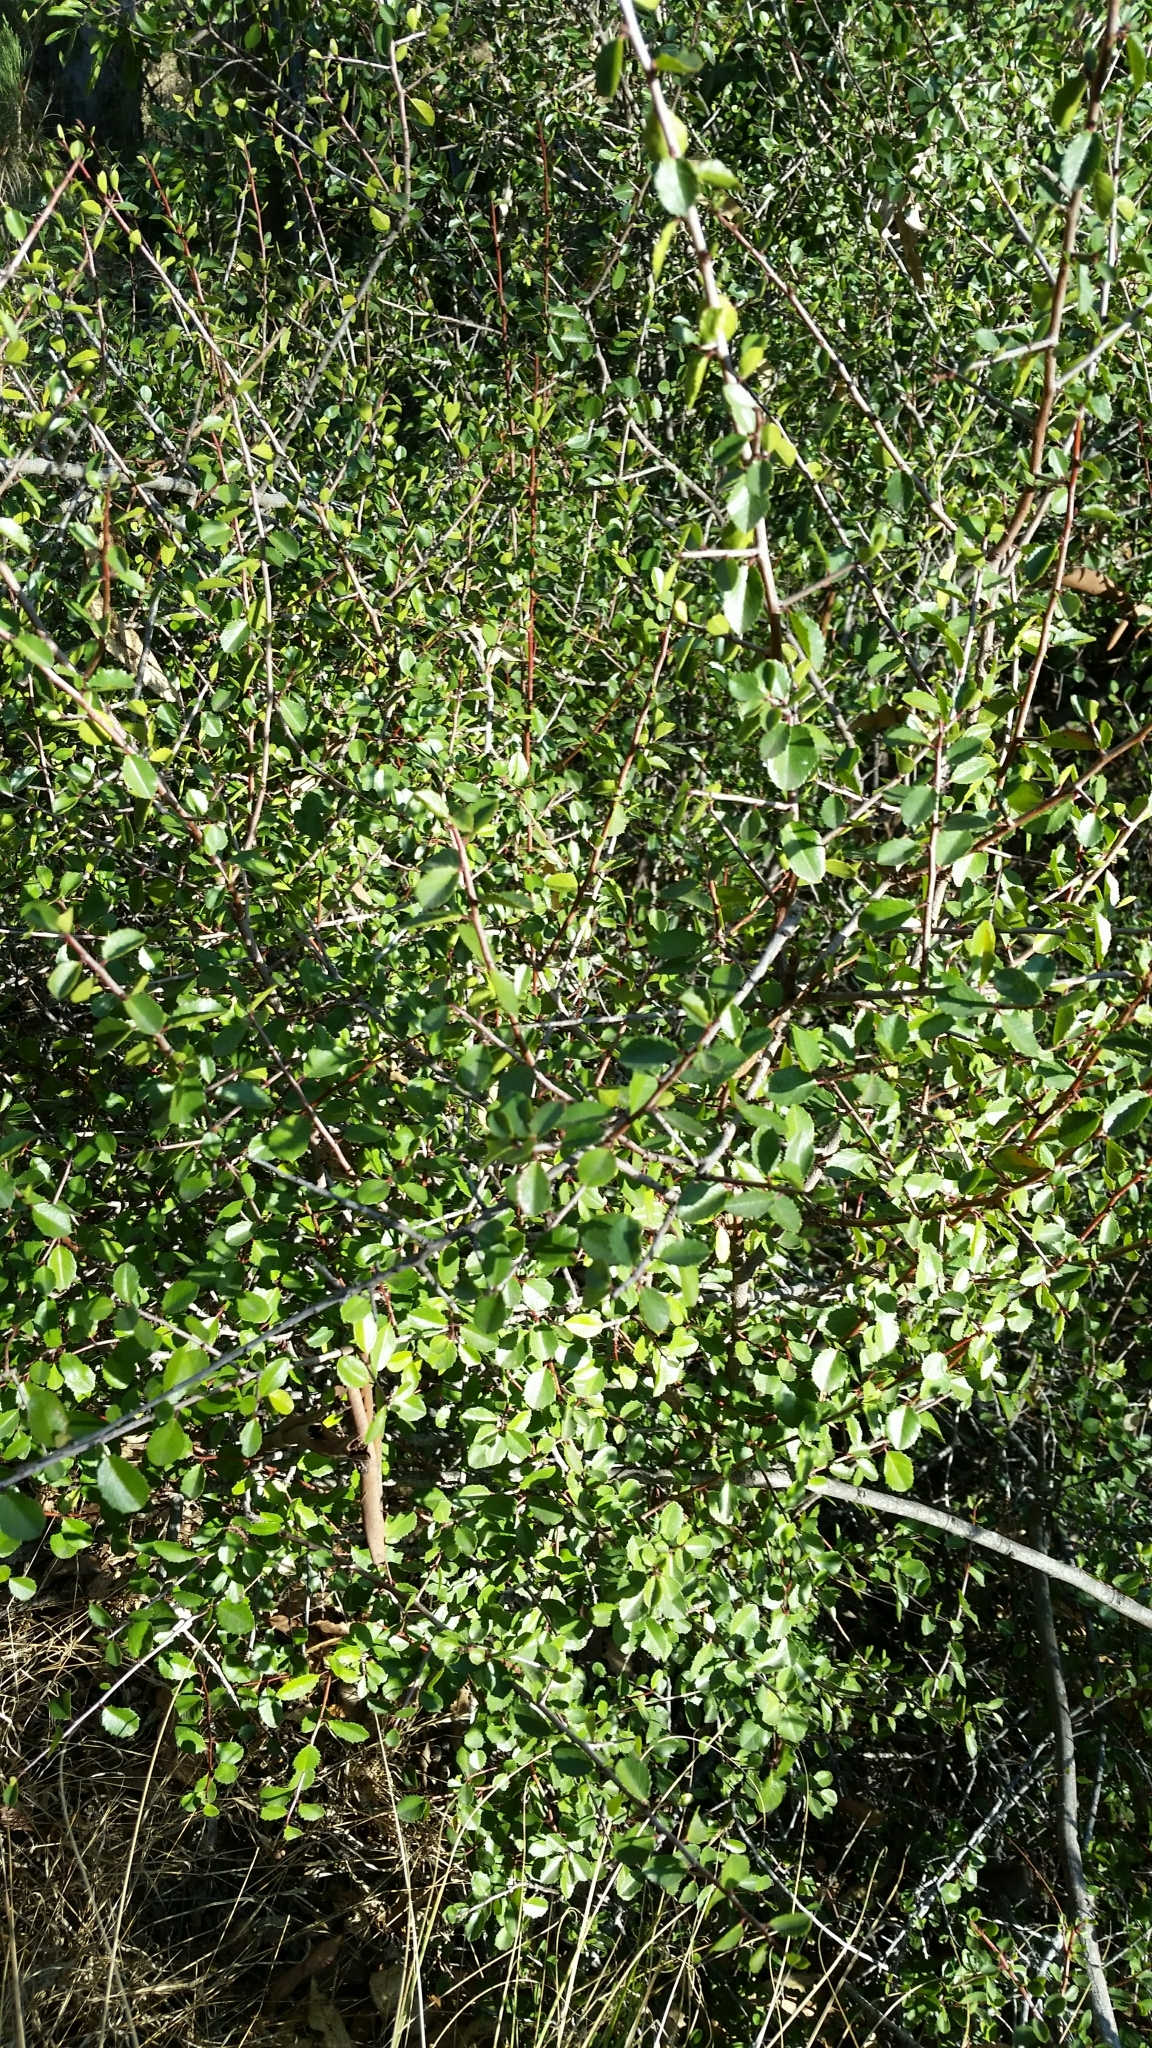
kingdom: Plantae
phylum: Tracheophyta
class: Magnoliopsida
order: Rosales
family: Rhamnaceae
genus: Endotropis
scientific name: Endotropis crocea
